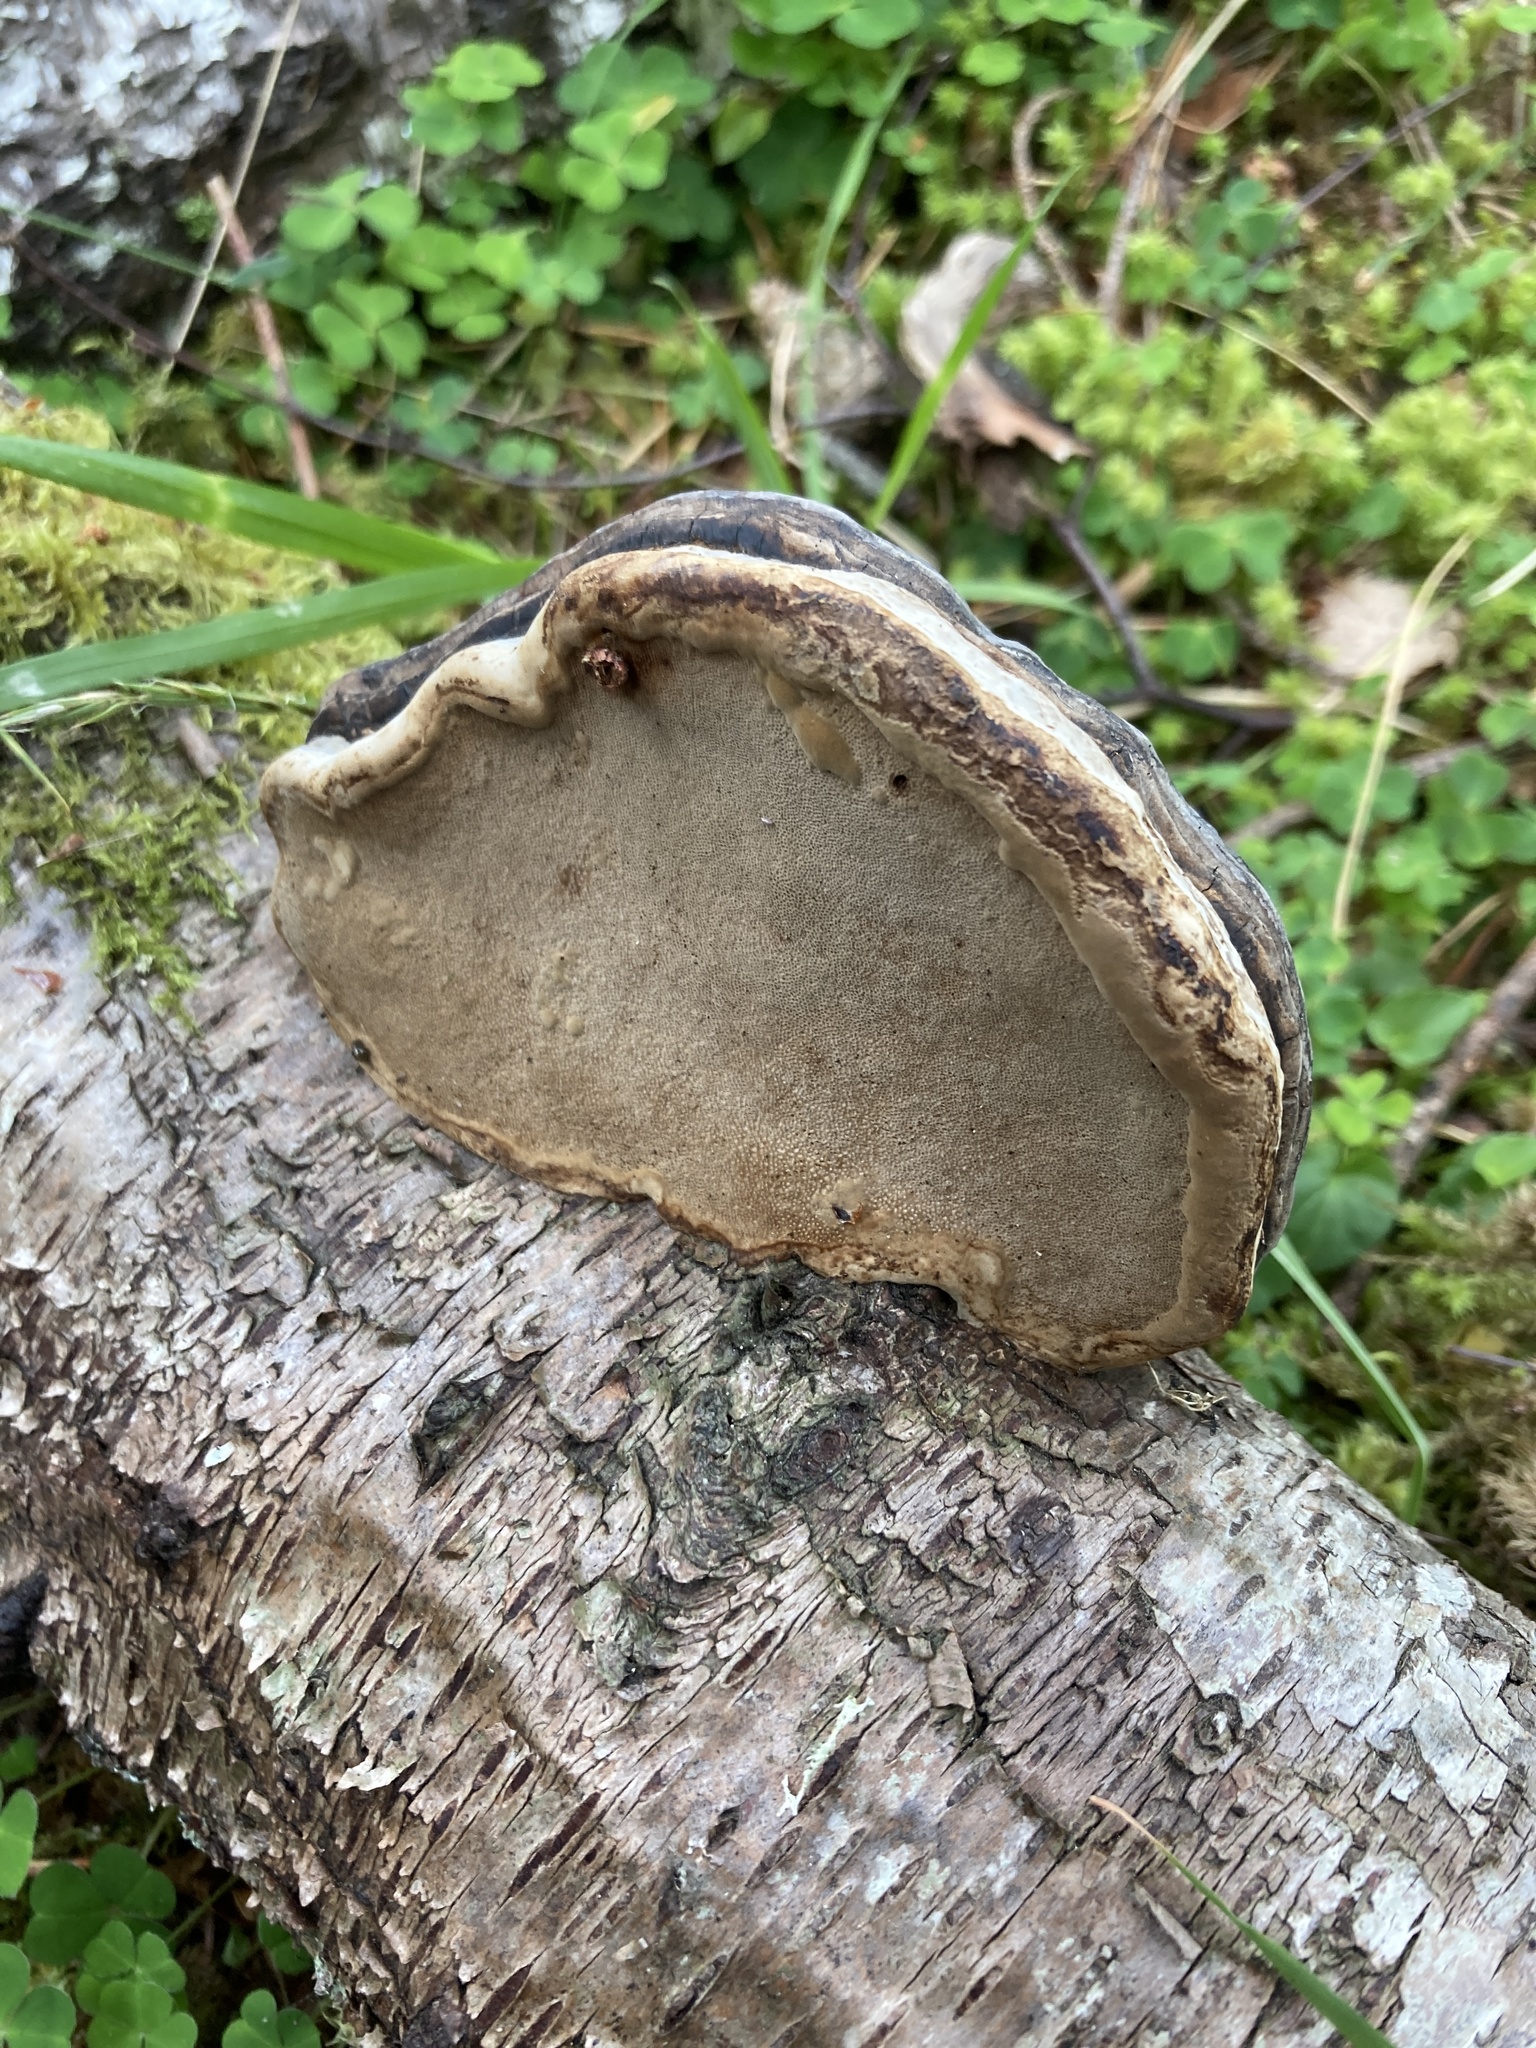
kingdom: Fungi
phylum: Basidiomycota
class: Agaricomycetes
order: Polyporales
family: Polyporaceae
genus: Fomes
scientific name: Fomes fomentarius
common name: Hoof fungus
